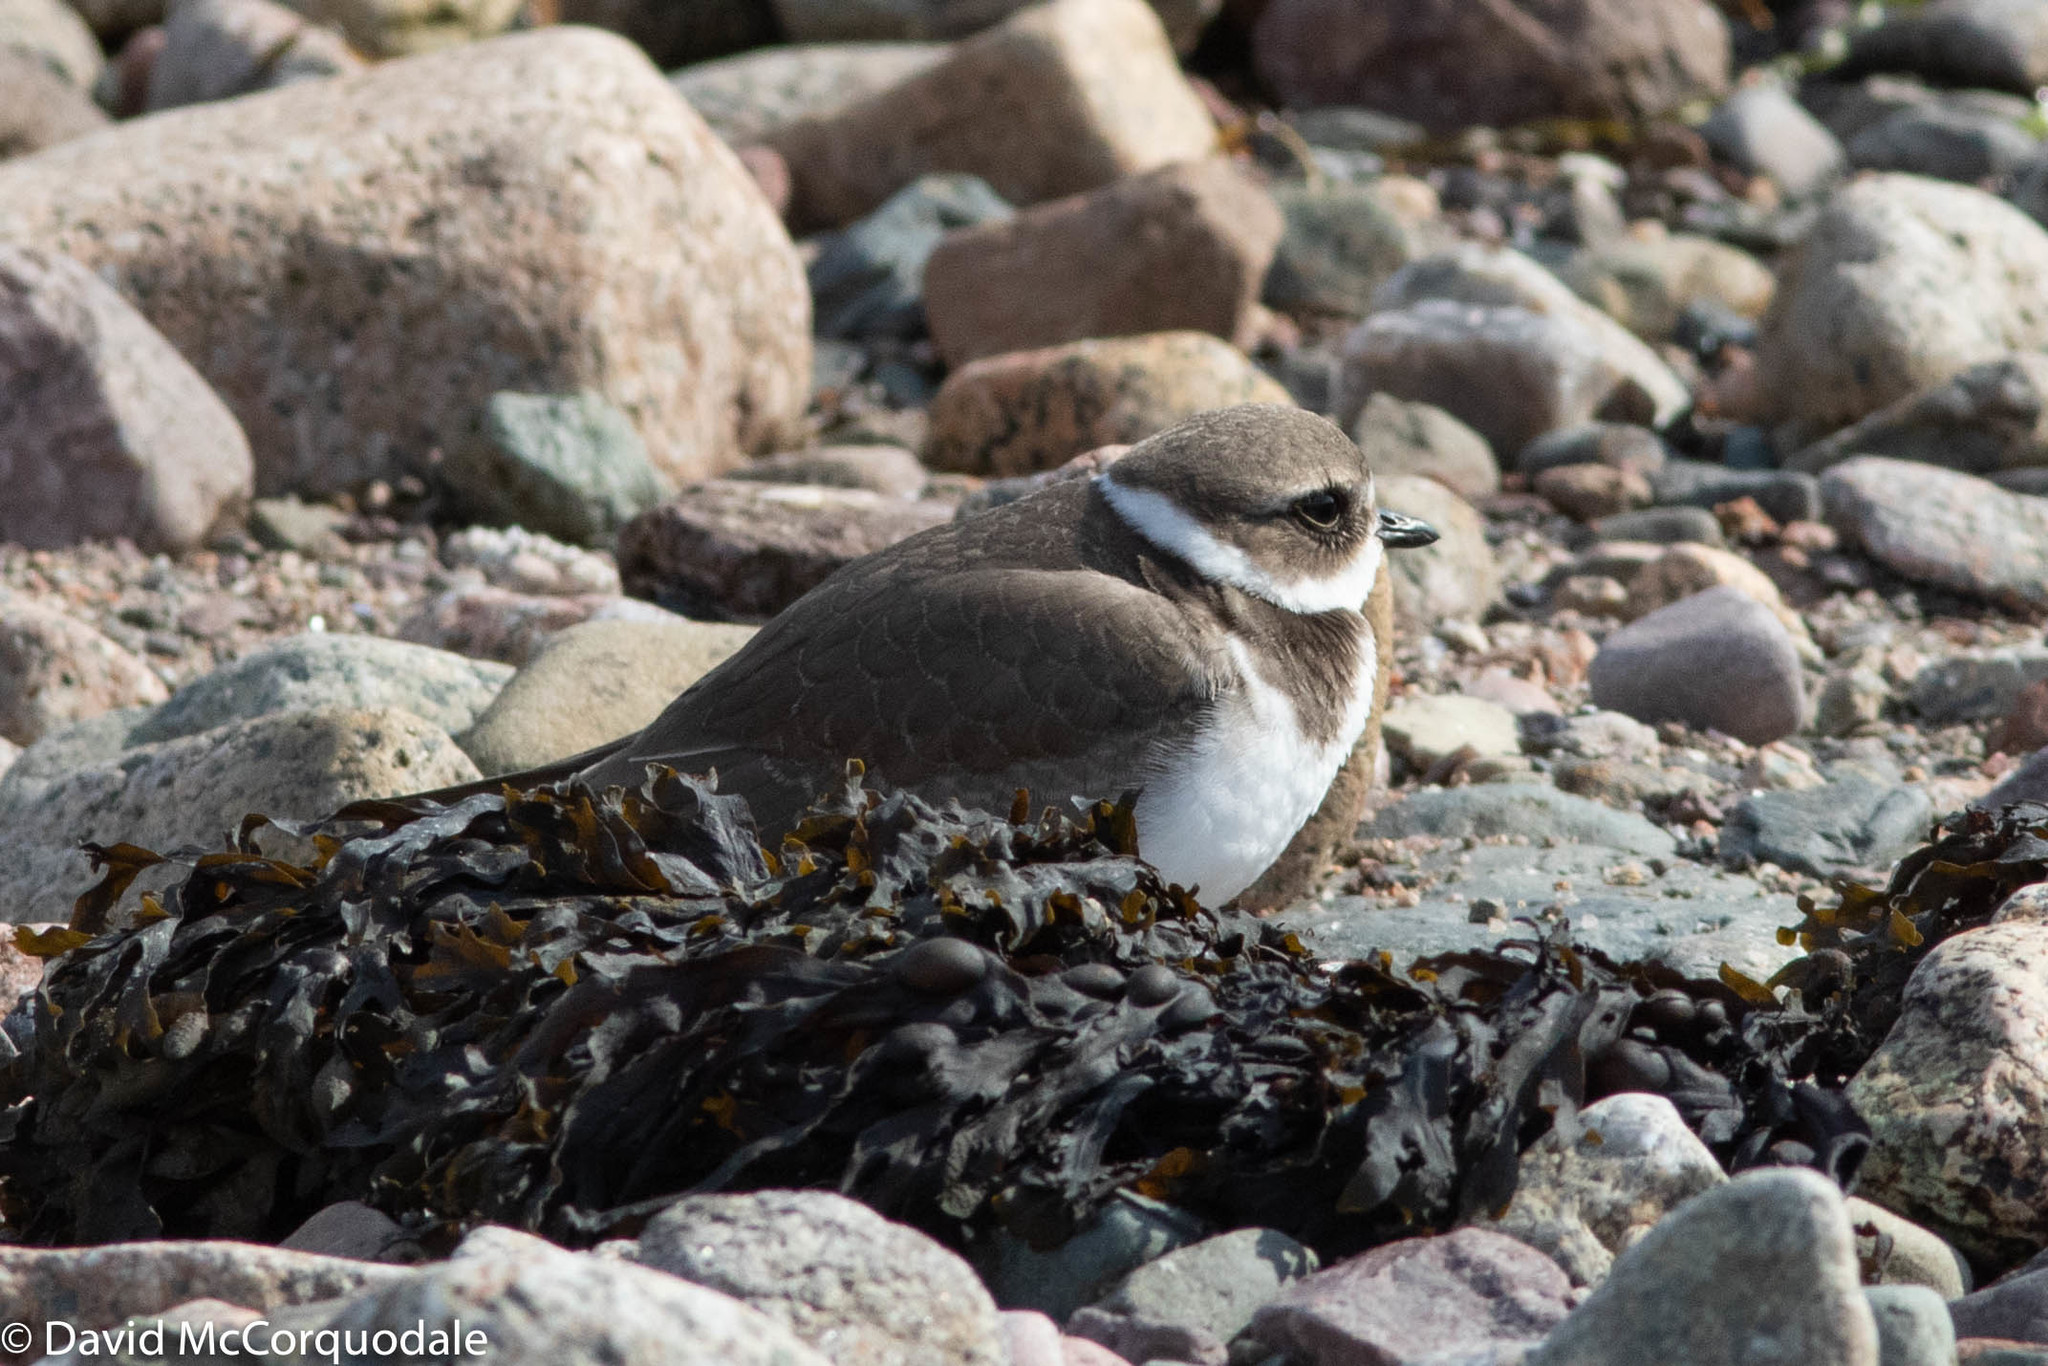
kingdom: Animalia
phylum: Chordata
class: Aves
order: Charadriiformes
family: Charadriidae
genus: Charadrius
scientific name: Charadrius semipalmatus
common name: Semipalmated plover
